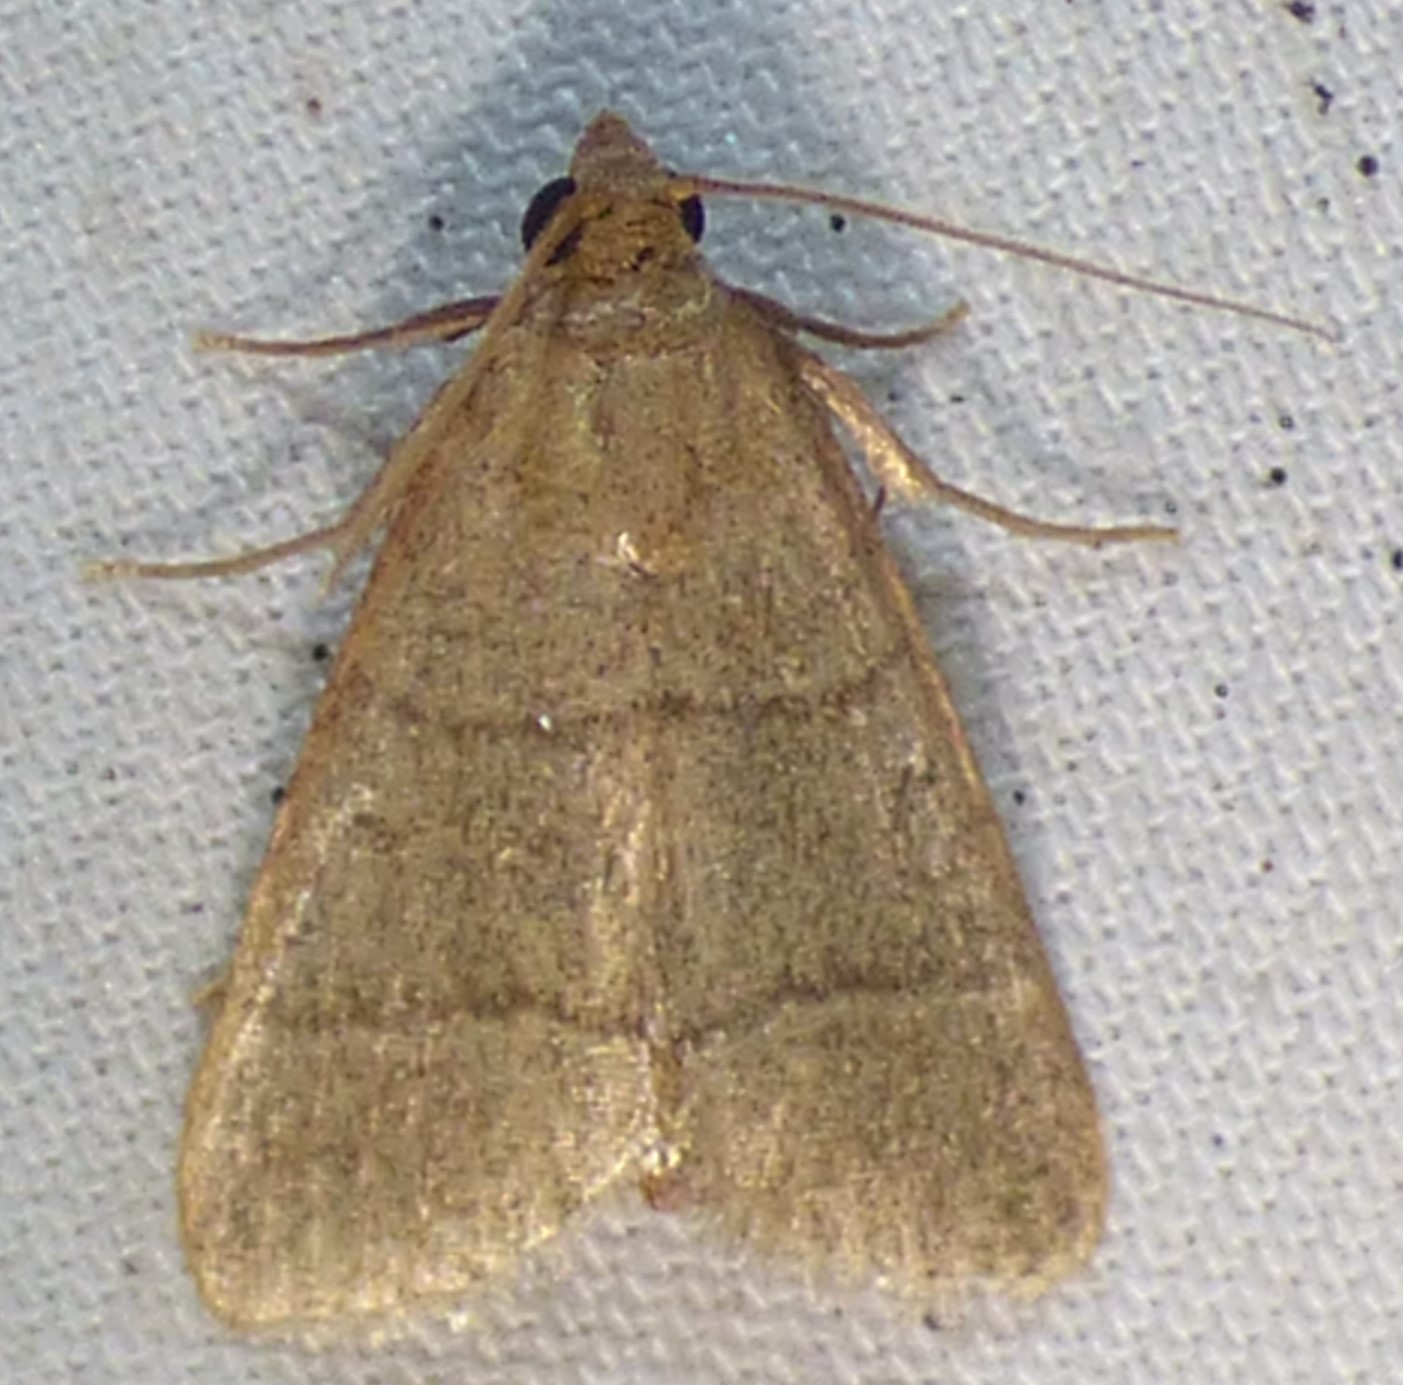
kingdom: Animalia
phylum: Arthropoda
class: Insecta
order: Lepidoptera
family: Pyralidae
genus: Hypsopygia
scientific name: Hypsopygia nostralis
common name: Southern hayworm moth
